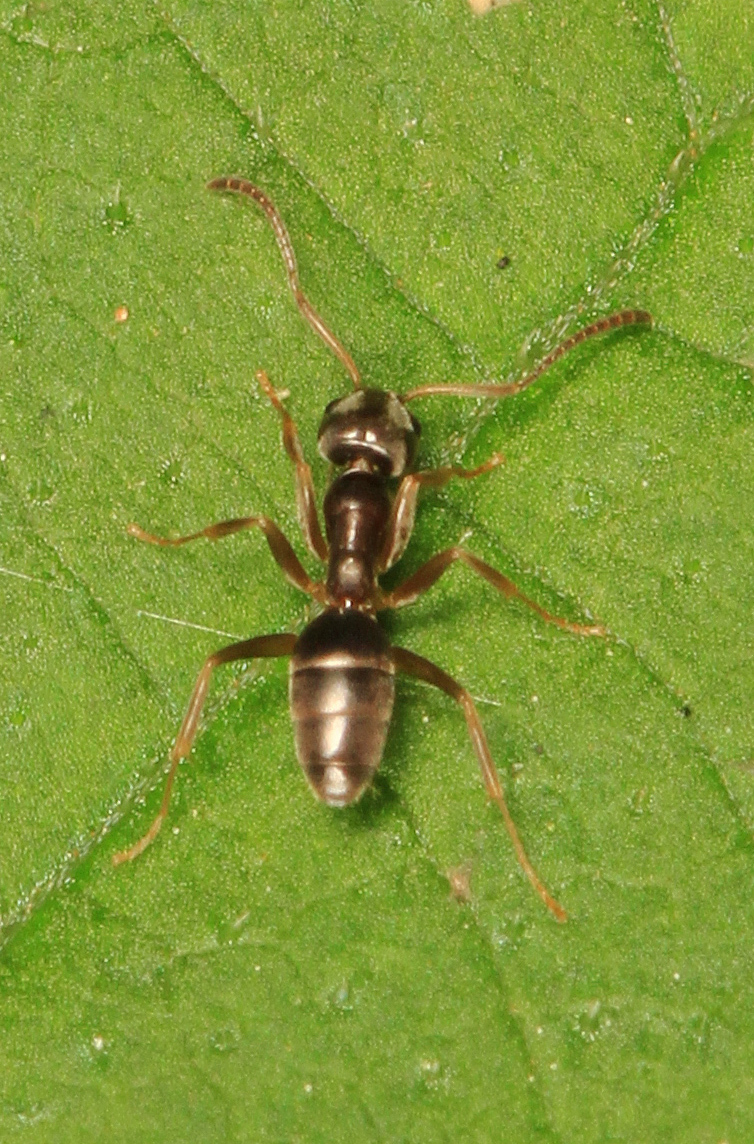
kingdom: Animalia
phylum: Arthropoda
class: Insecta
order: Hymenoptera
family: Formicidae
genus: Tapinoma
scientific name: Tapinoma sessile
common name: Odorous house ant
